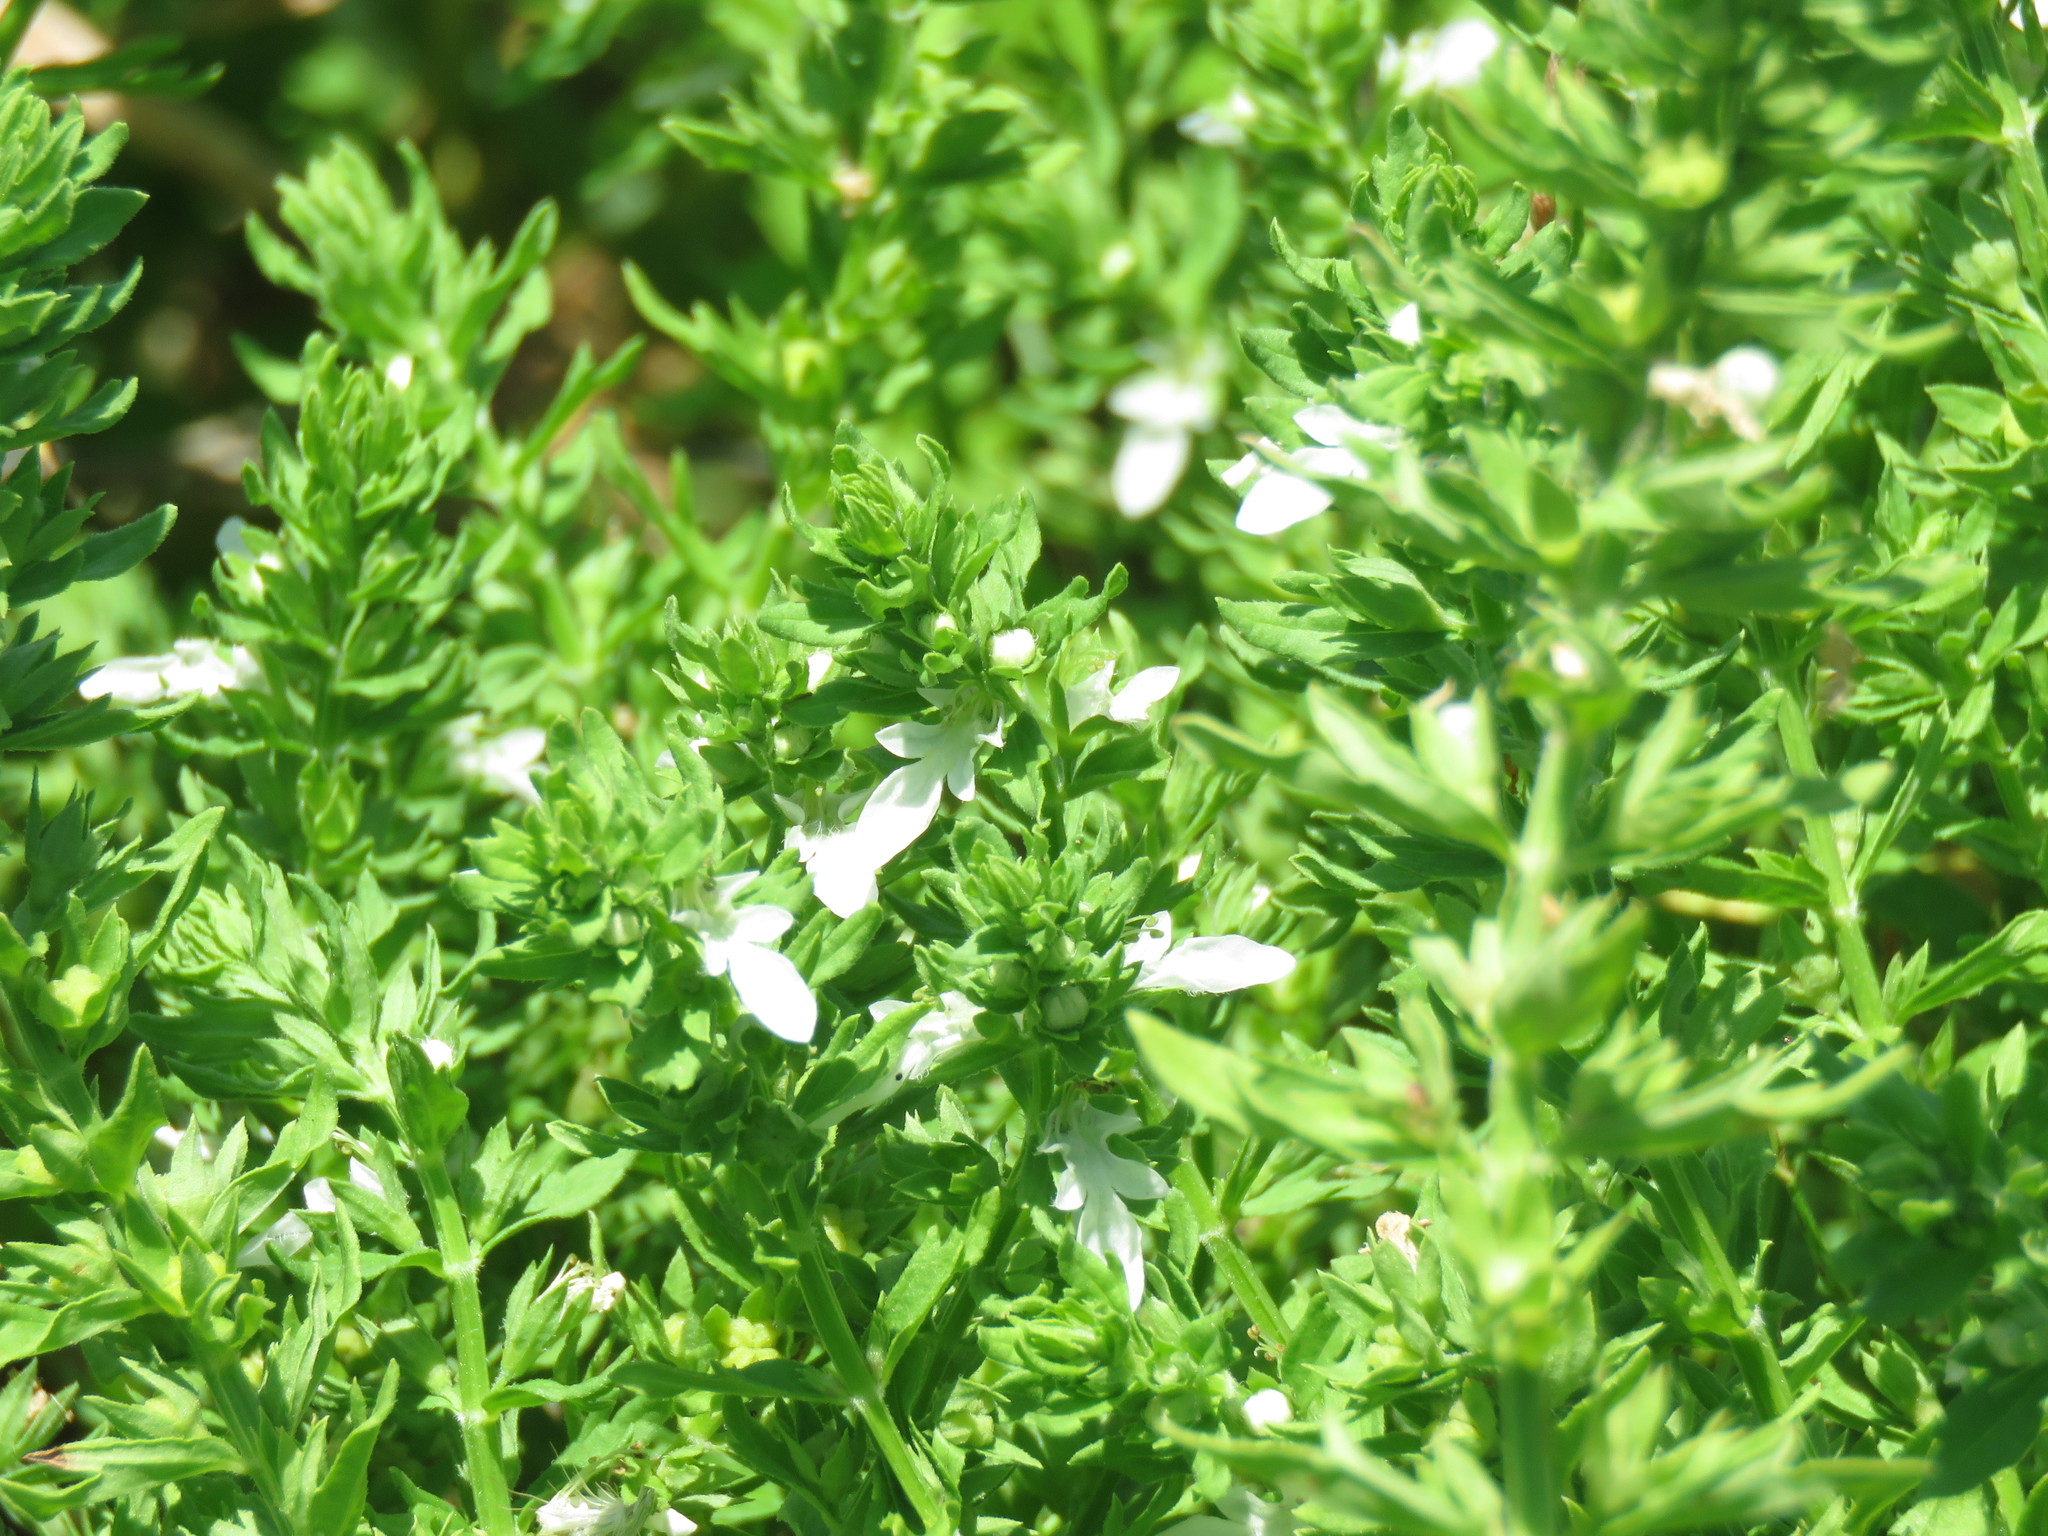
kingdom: Plantae
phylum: Tracheophyta
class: Magnoliopsida
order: Lamiales
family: Lamiaceae
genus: Teucrium
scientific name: Teucrium cubense
